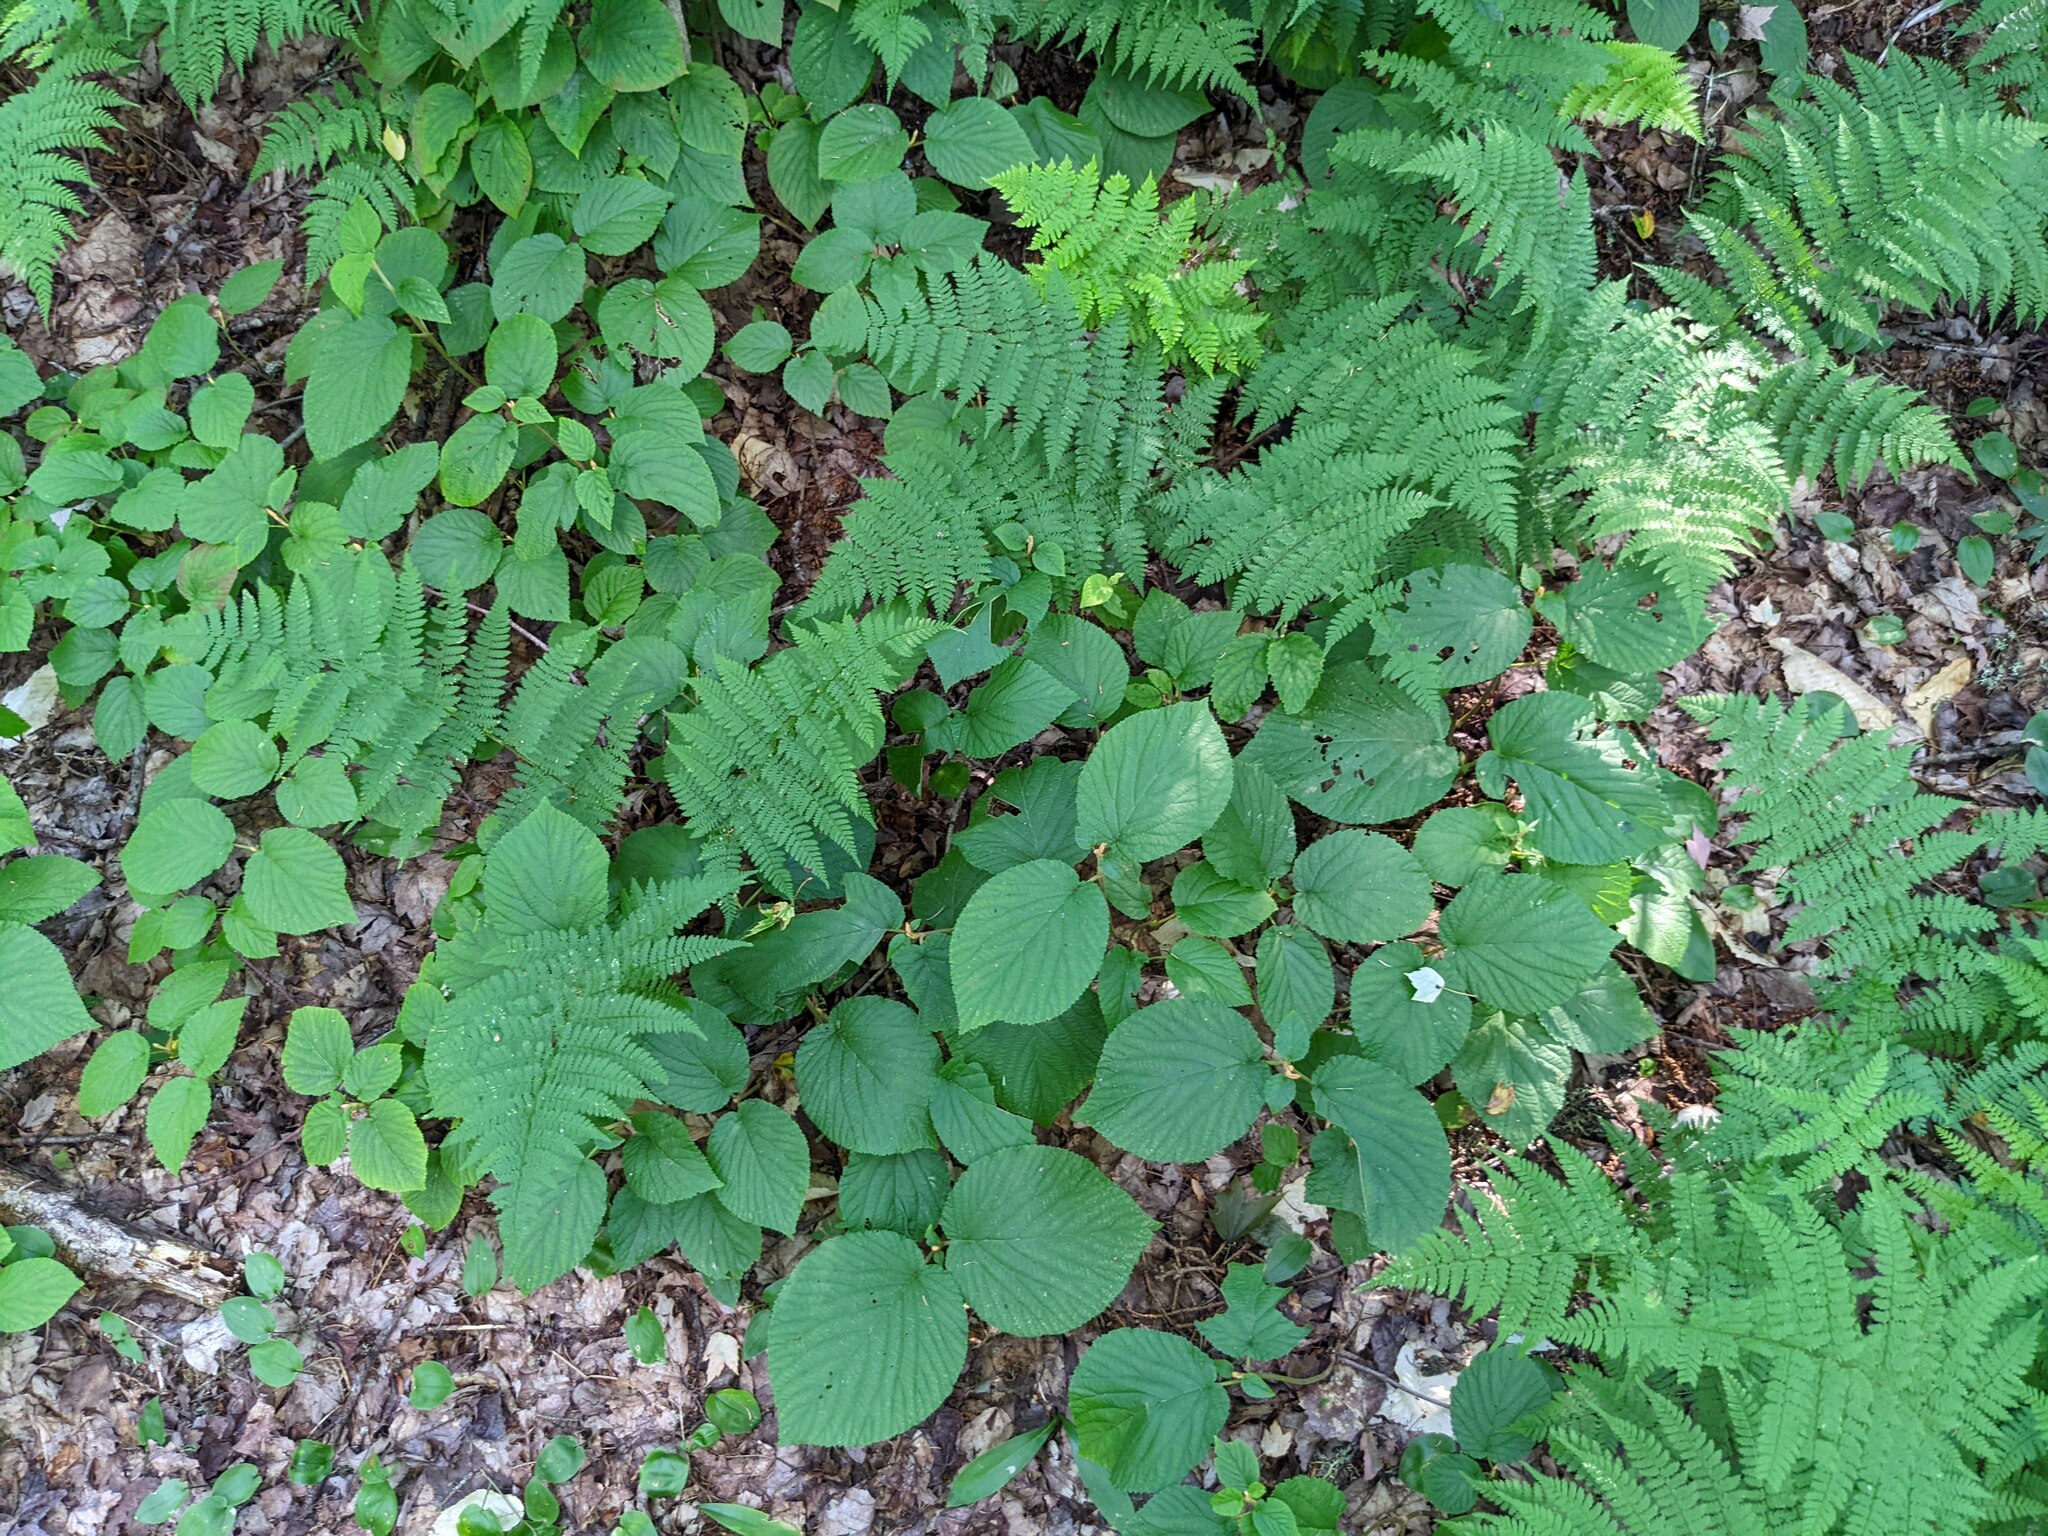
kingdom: Plantae
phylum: Tracheophyta
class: Magnoliopsida
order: Dipsacales
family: Viburnaceae
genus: Viburnum
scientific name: Viburnum lantanoides
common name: Hobblebush
